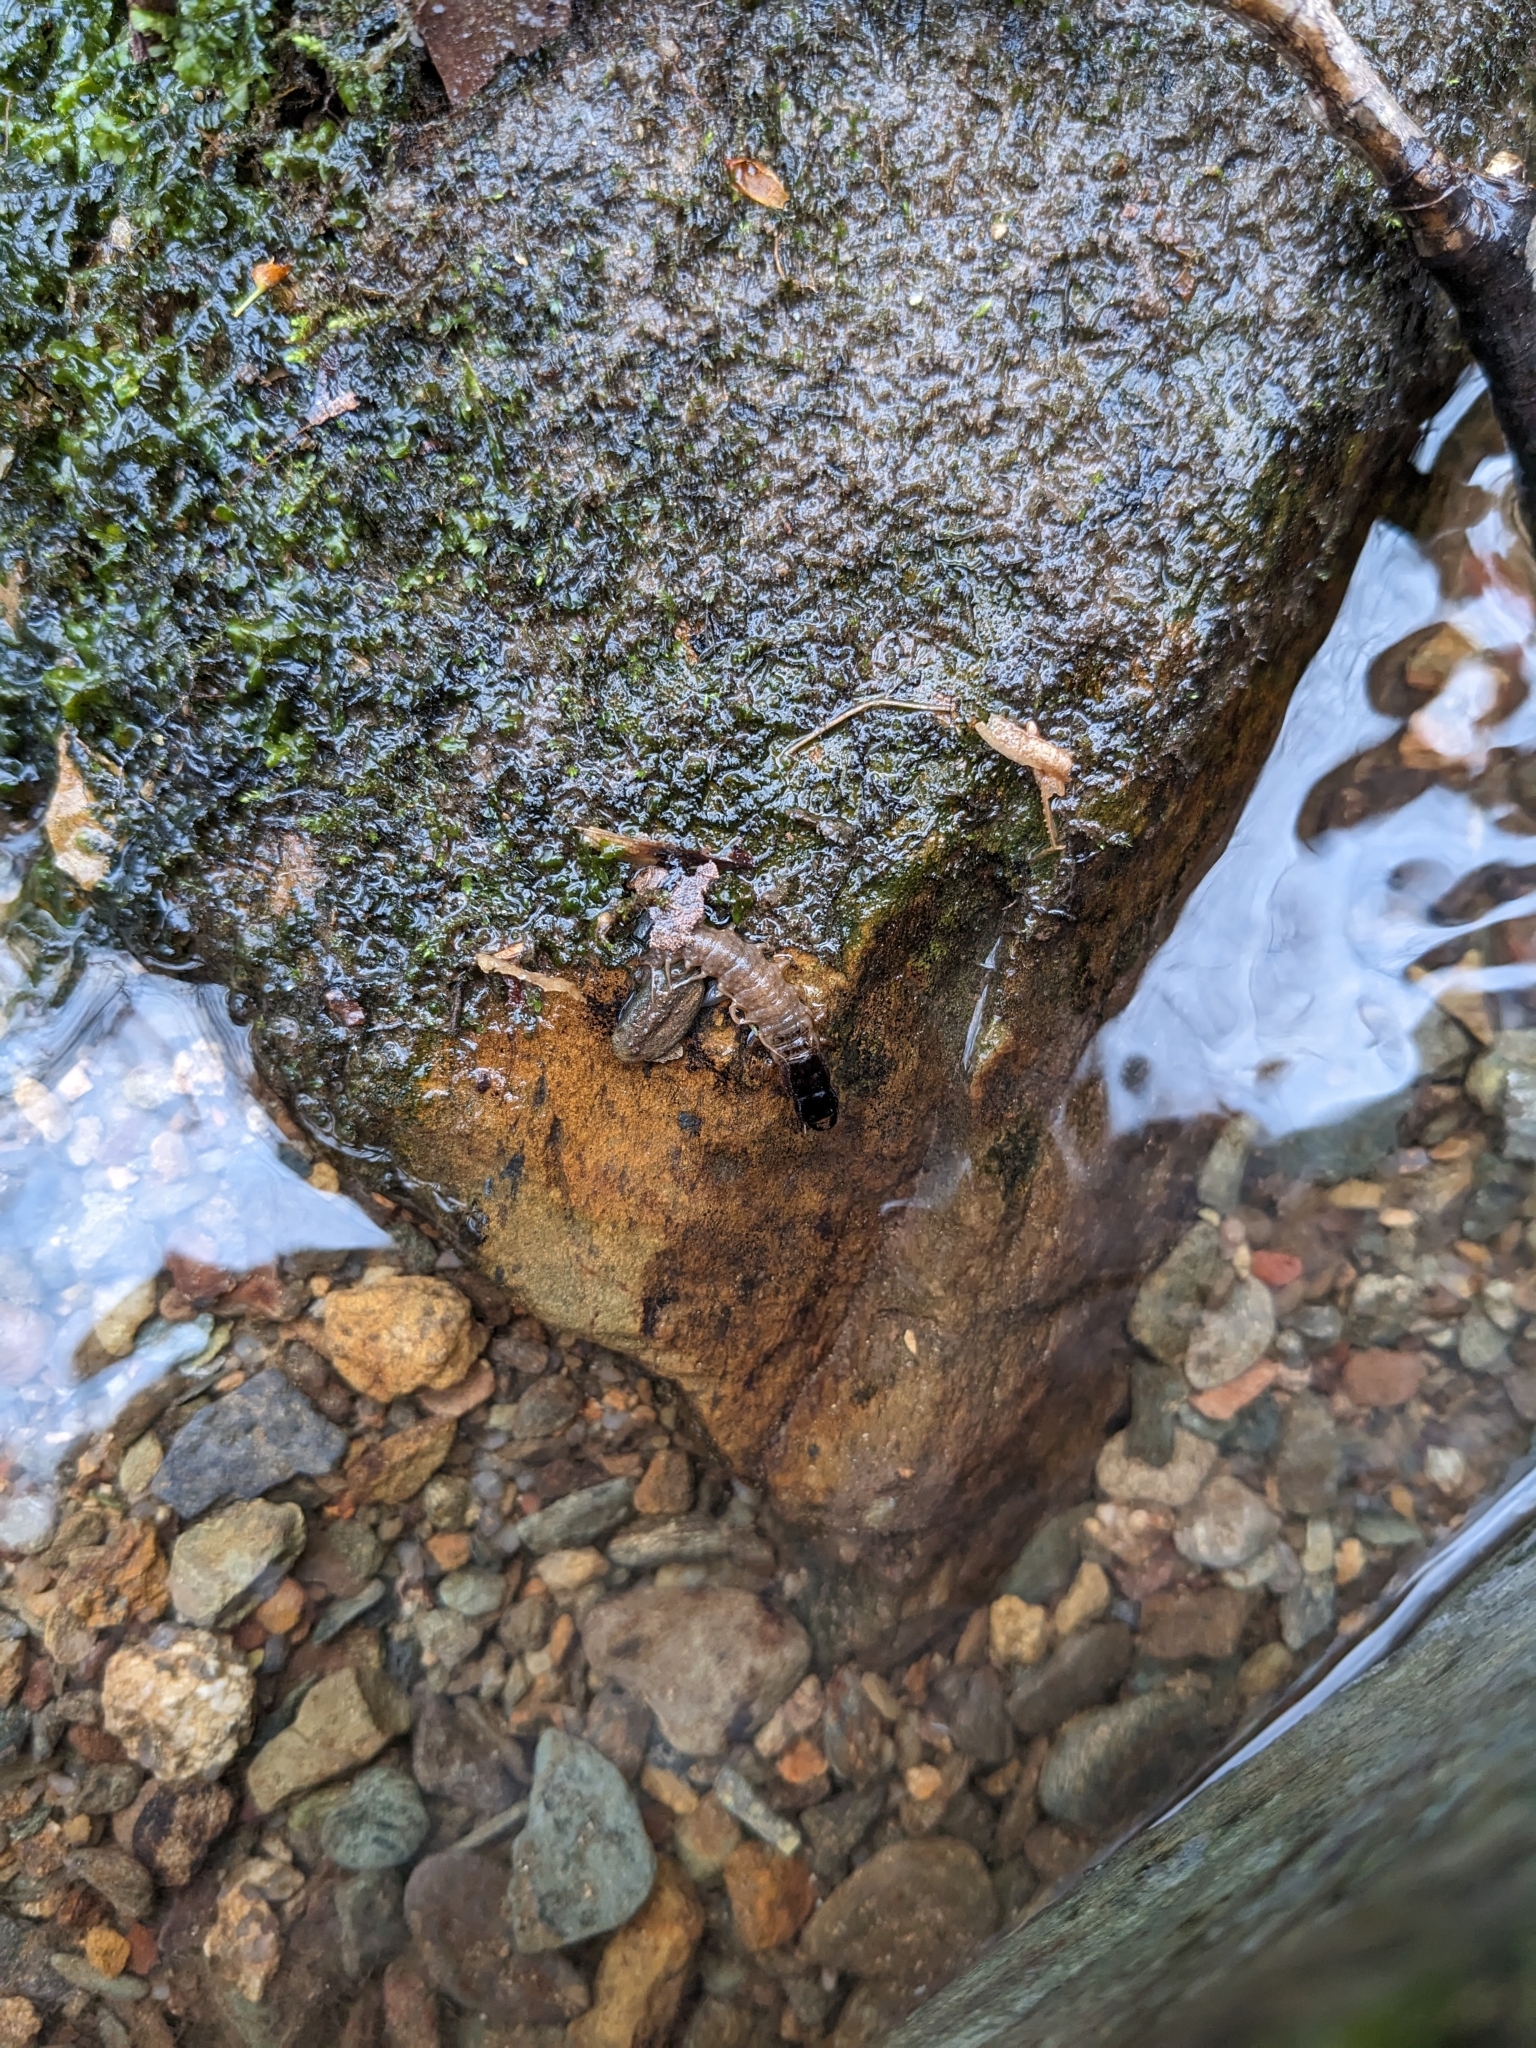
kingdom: Animalia
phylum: Arthropoda
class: Insecta
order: Megaloptera
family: Corydalidae
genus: Nigronia
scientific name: Nigronia fasciata
